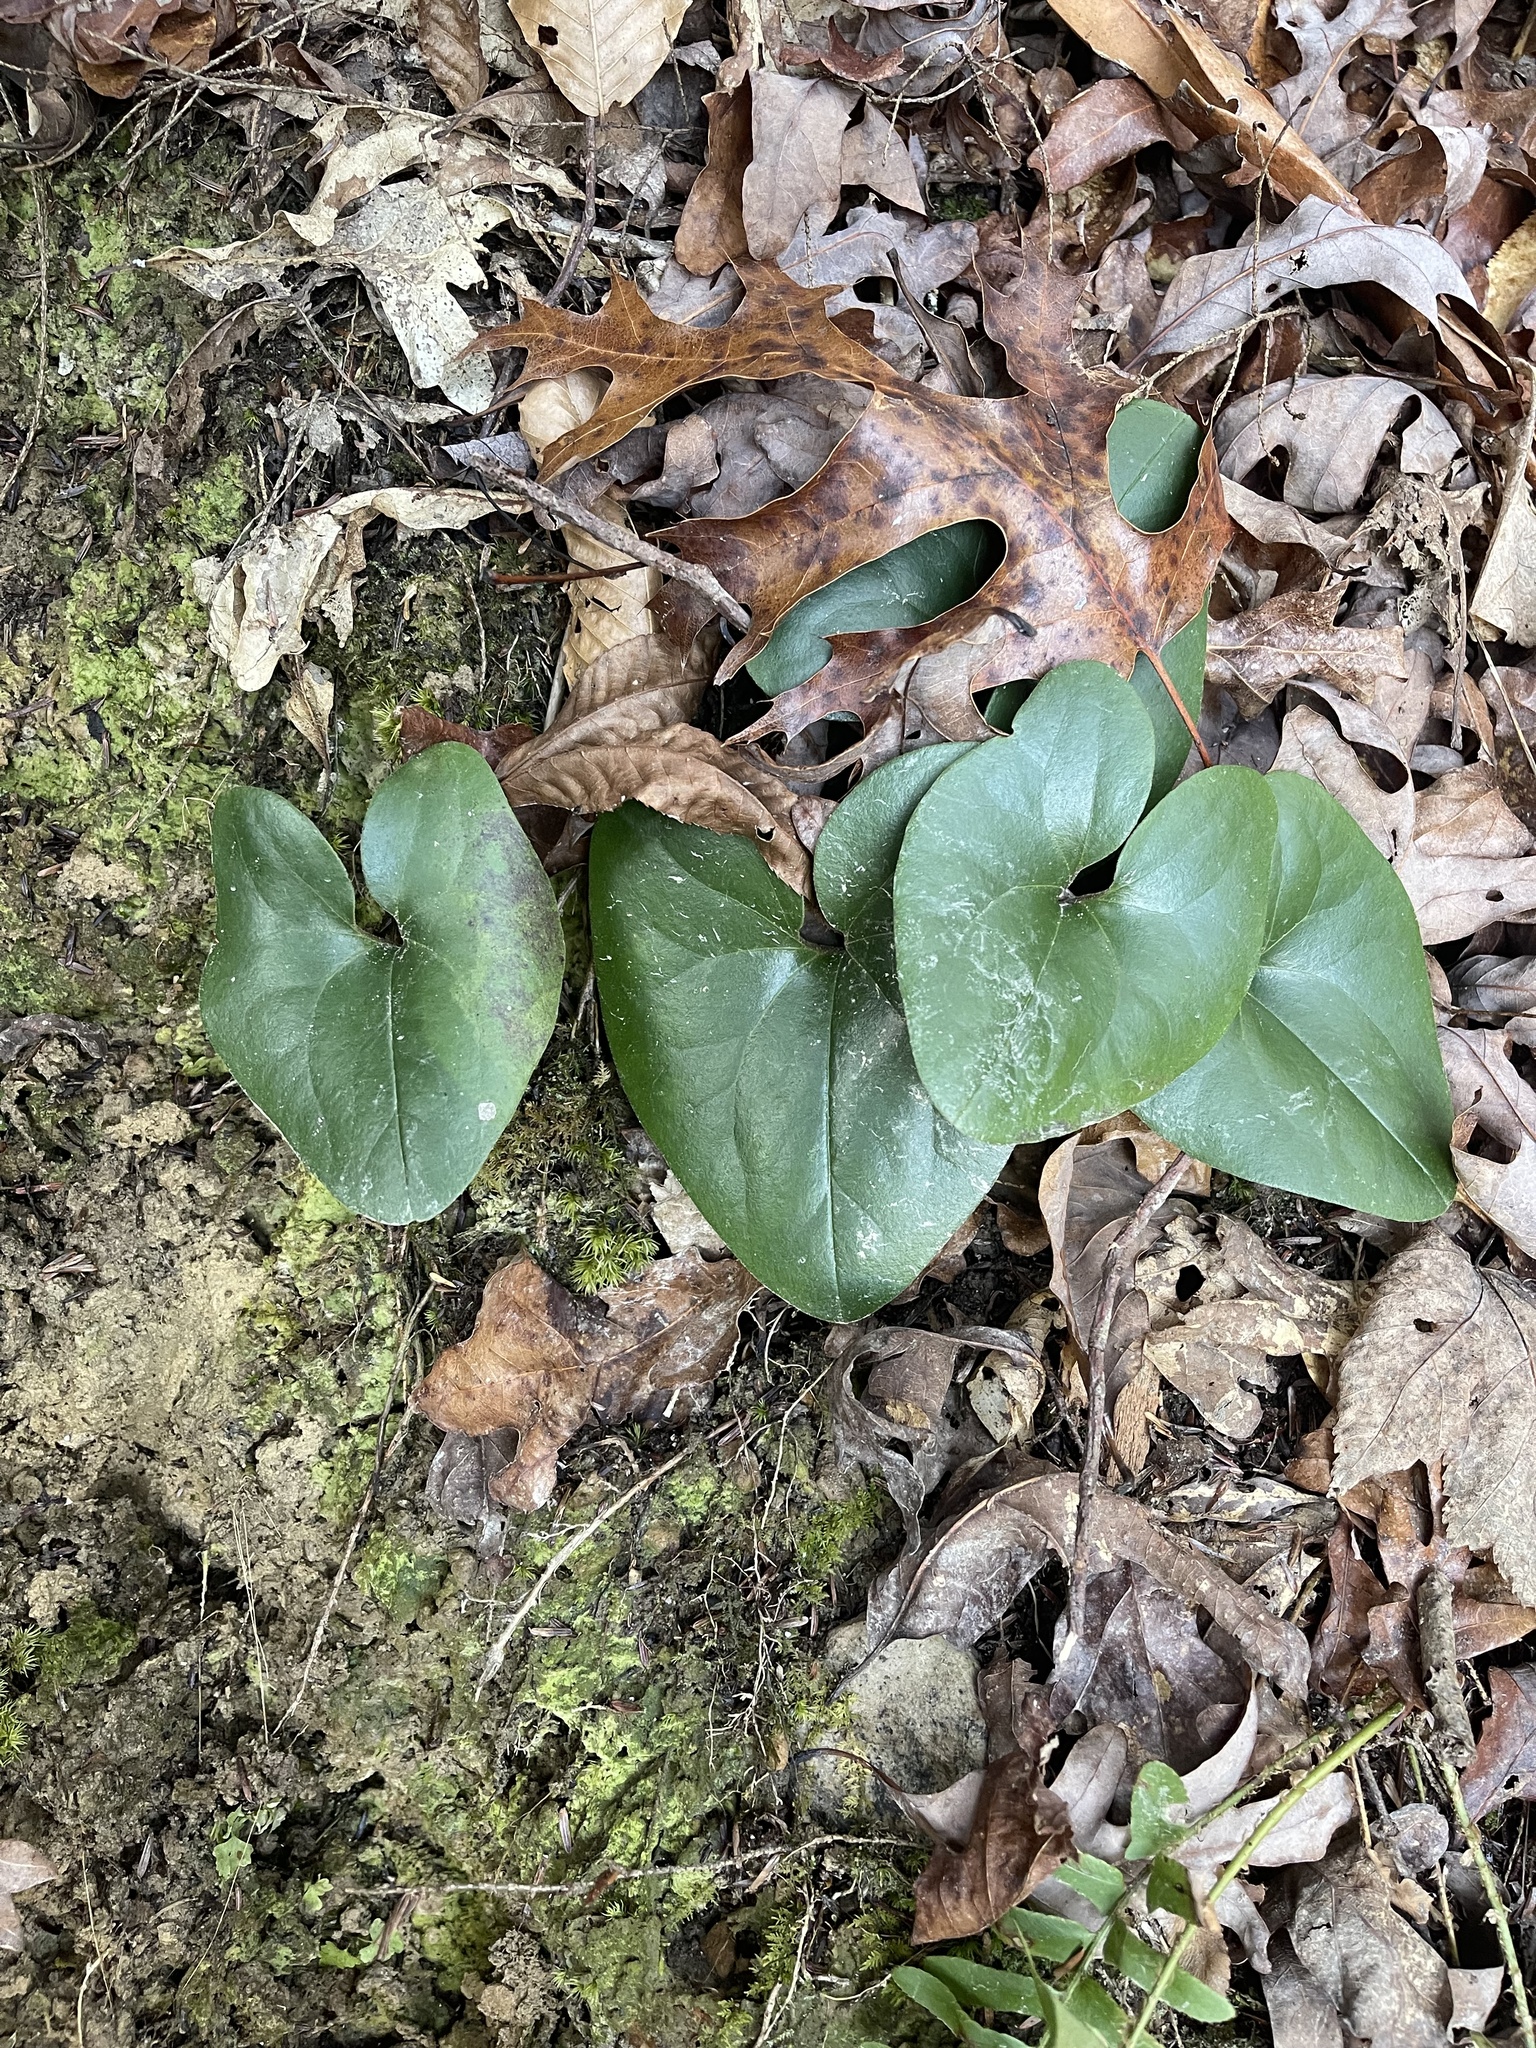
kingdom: Plantae
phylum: Tracheophyta
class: Magnoliopsida
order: Piperales
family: Aristolochiaceae
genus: Hexastylis
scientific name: Hexastylis arifolia
